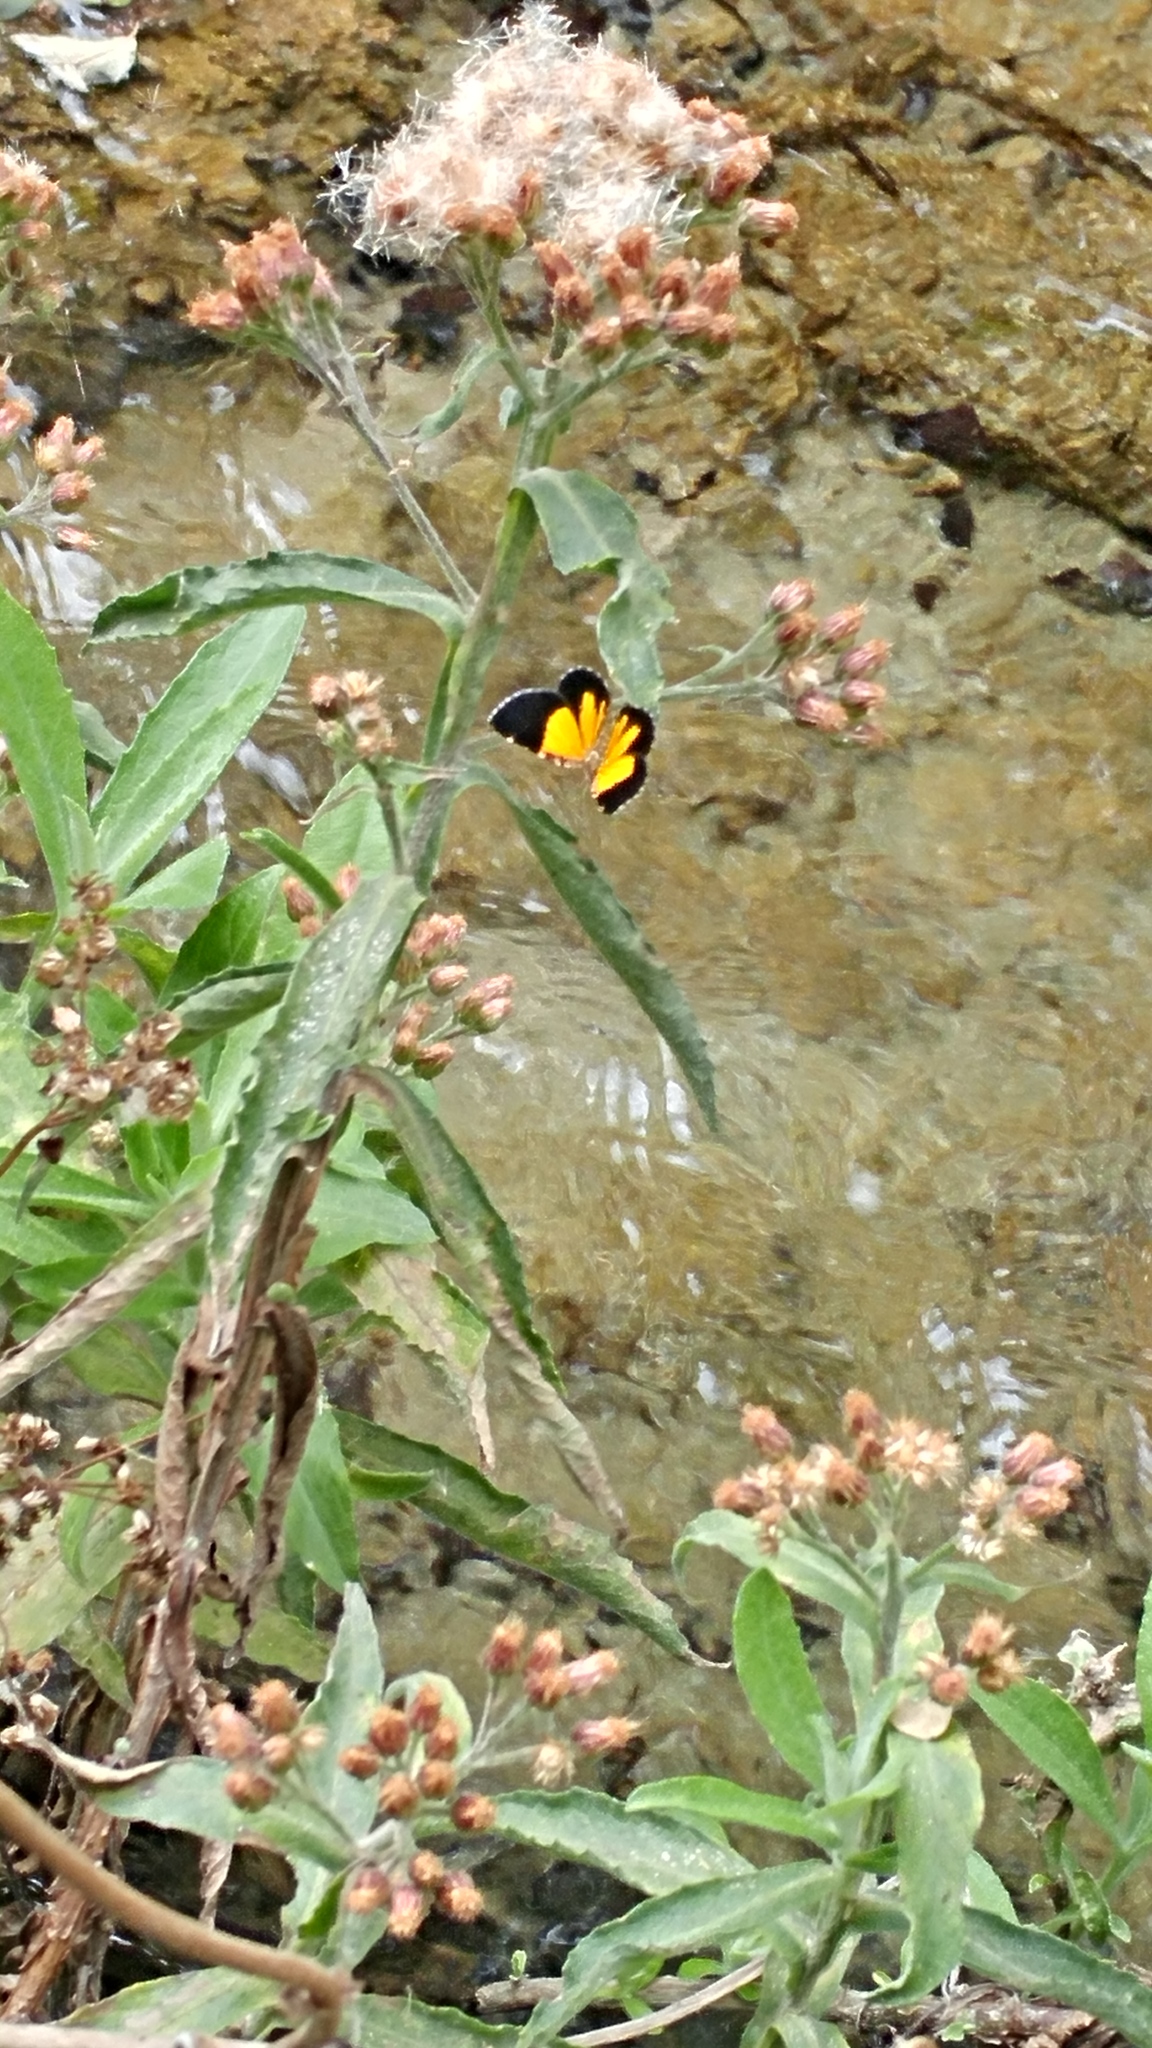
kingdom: Animalia
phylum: Arthropoda
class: Insecta
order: Lepidoptera
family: Geometridae
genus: Heterusia
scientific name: Heterusia atalantata
